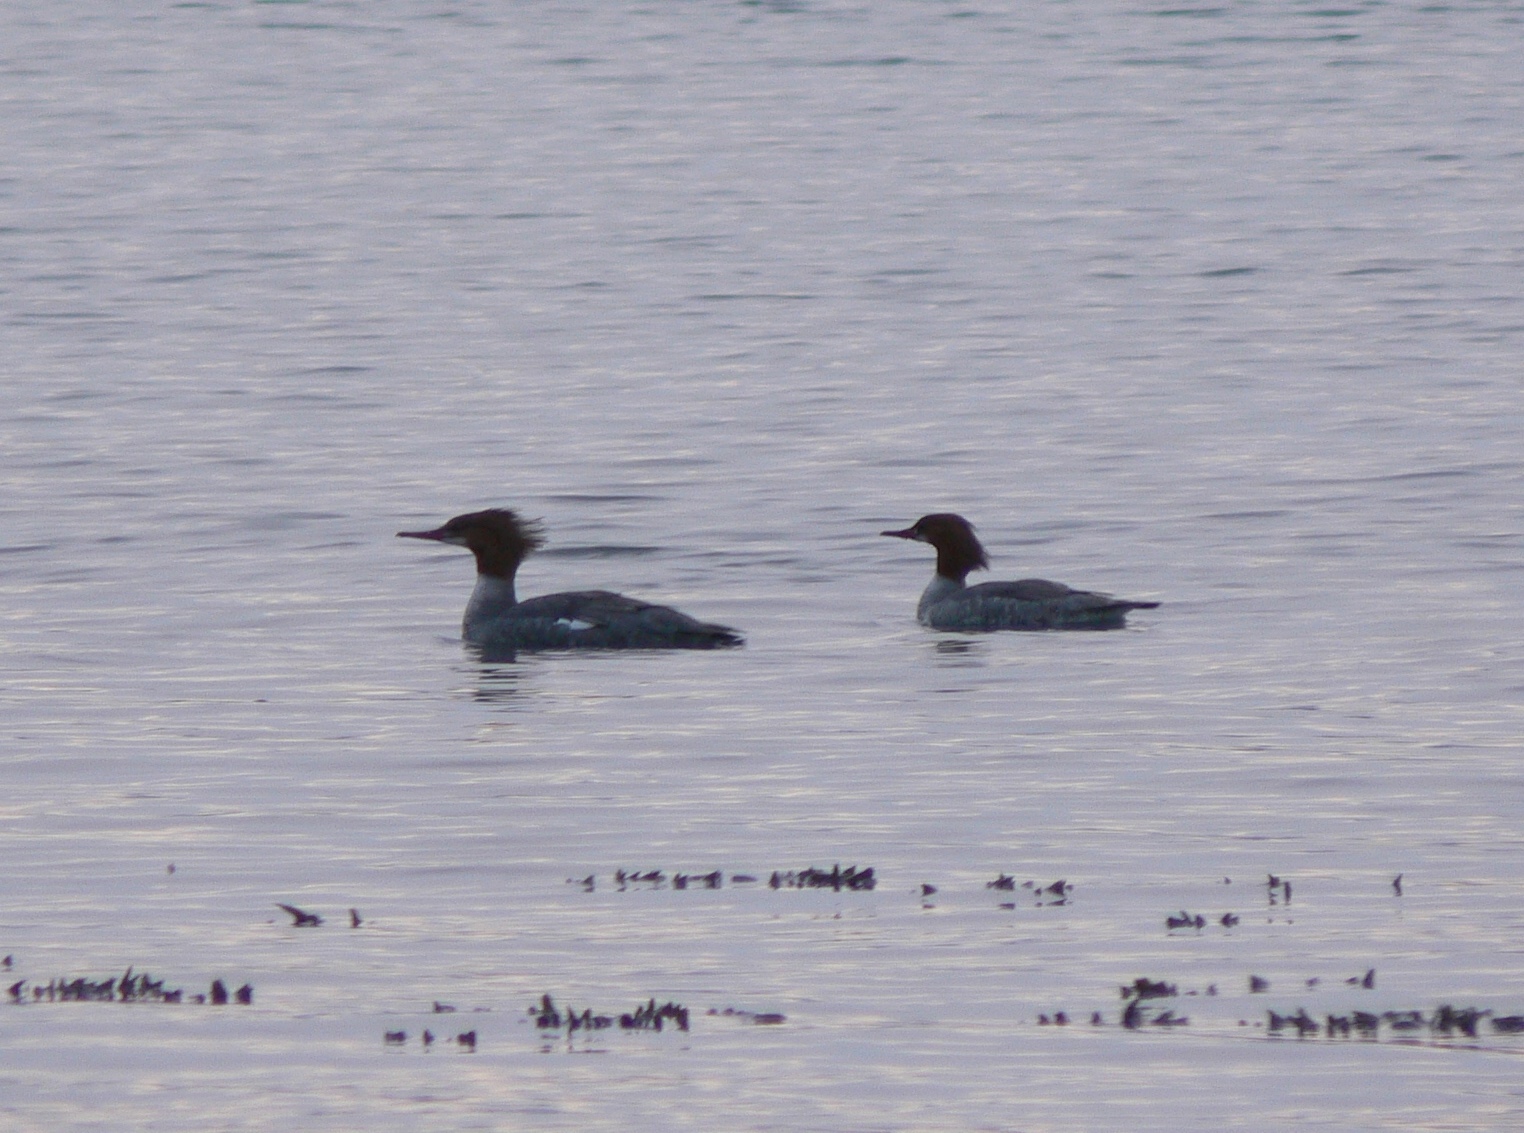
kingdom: Animalia
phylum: Chordata
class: Aves
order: Anseriformes
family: Anatidae
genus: Mergus
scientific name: Mergus merganser
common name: Common merganser
